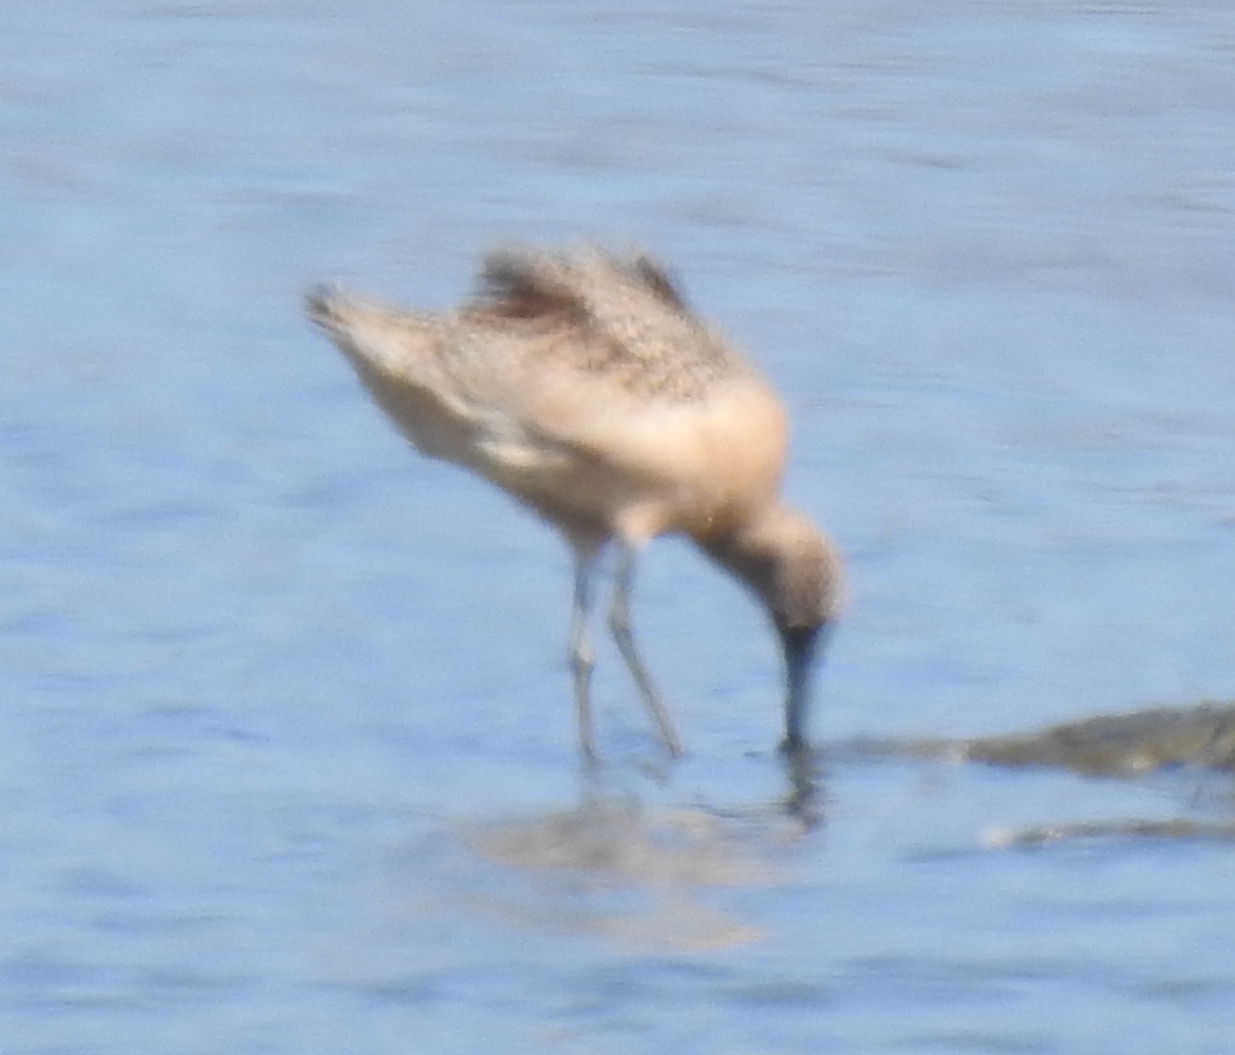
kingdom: Animalia
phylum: Chordata
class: Aves
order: Charadriiformes
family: Scolopacidae
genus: Limosa
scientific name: Limosa fedoa
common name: Marbled godwit
